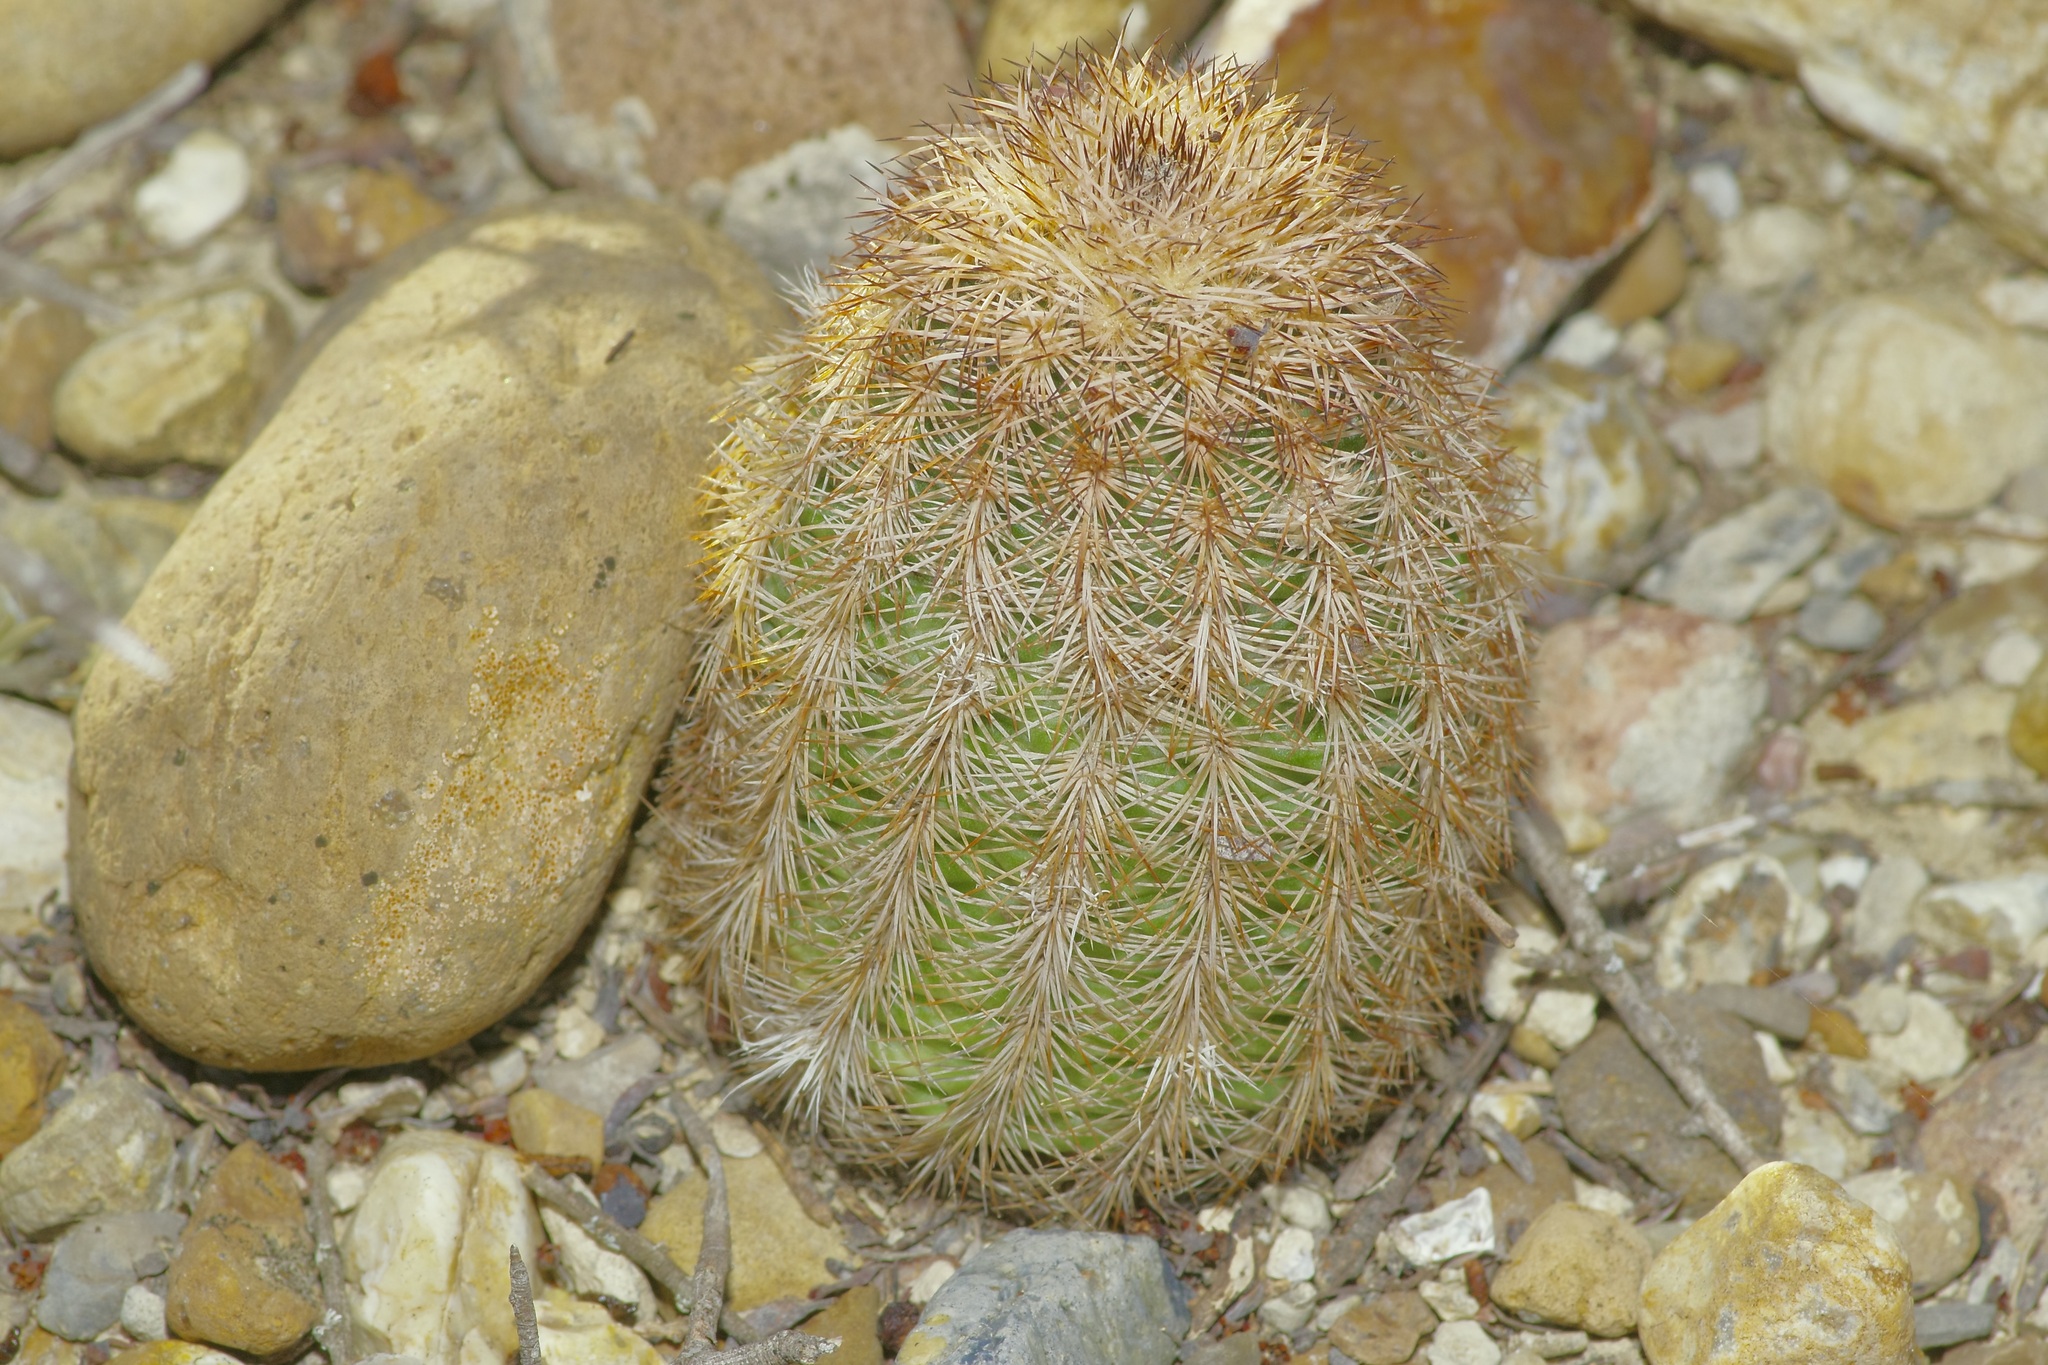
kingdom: Plantae
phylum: Tracheophyta
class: Magnoliopsida
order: Caryophyllales
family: Cactaceae
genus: Echinocereus
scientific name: Echinocereus reichenbachii
